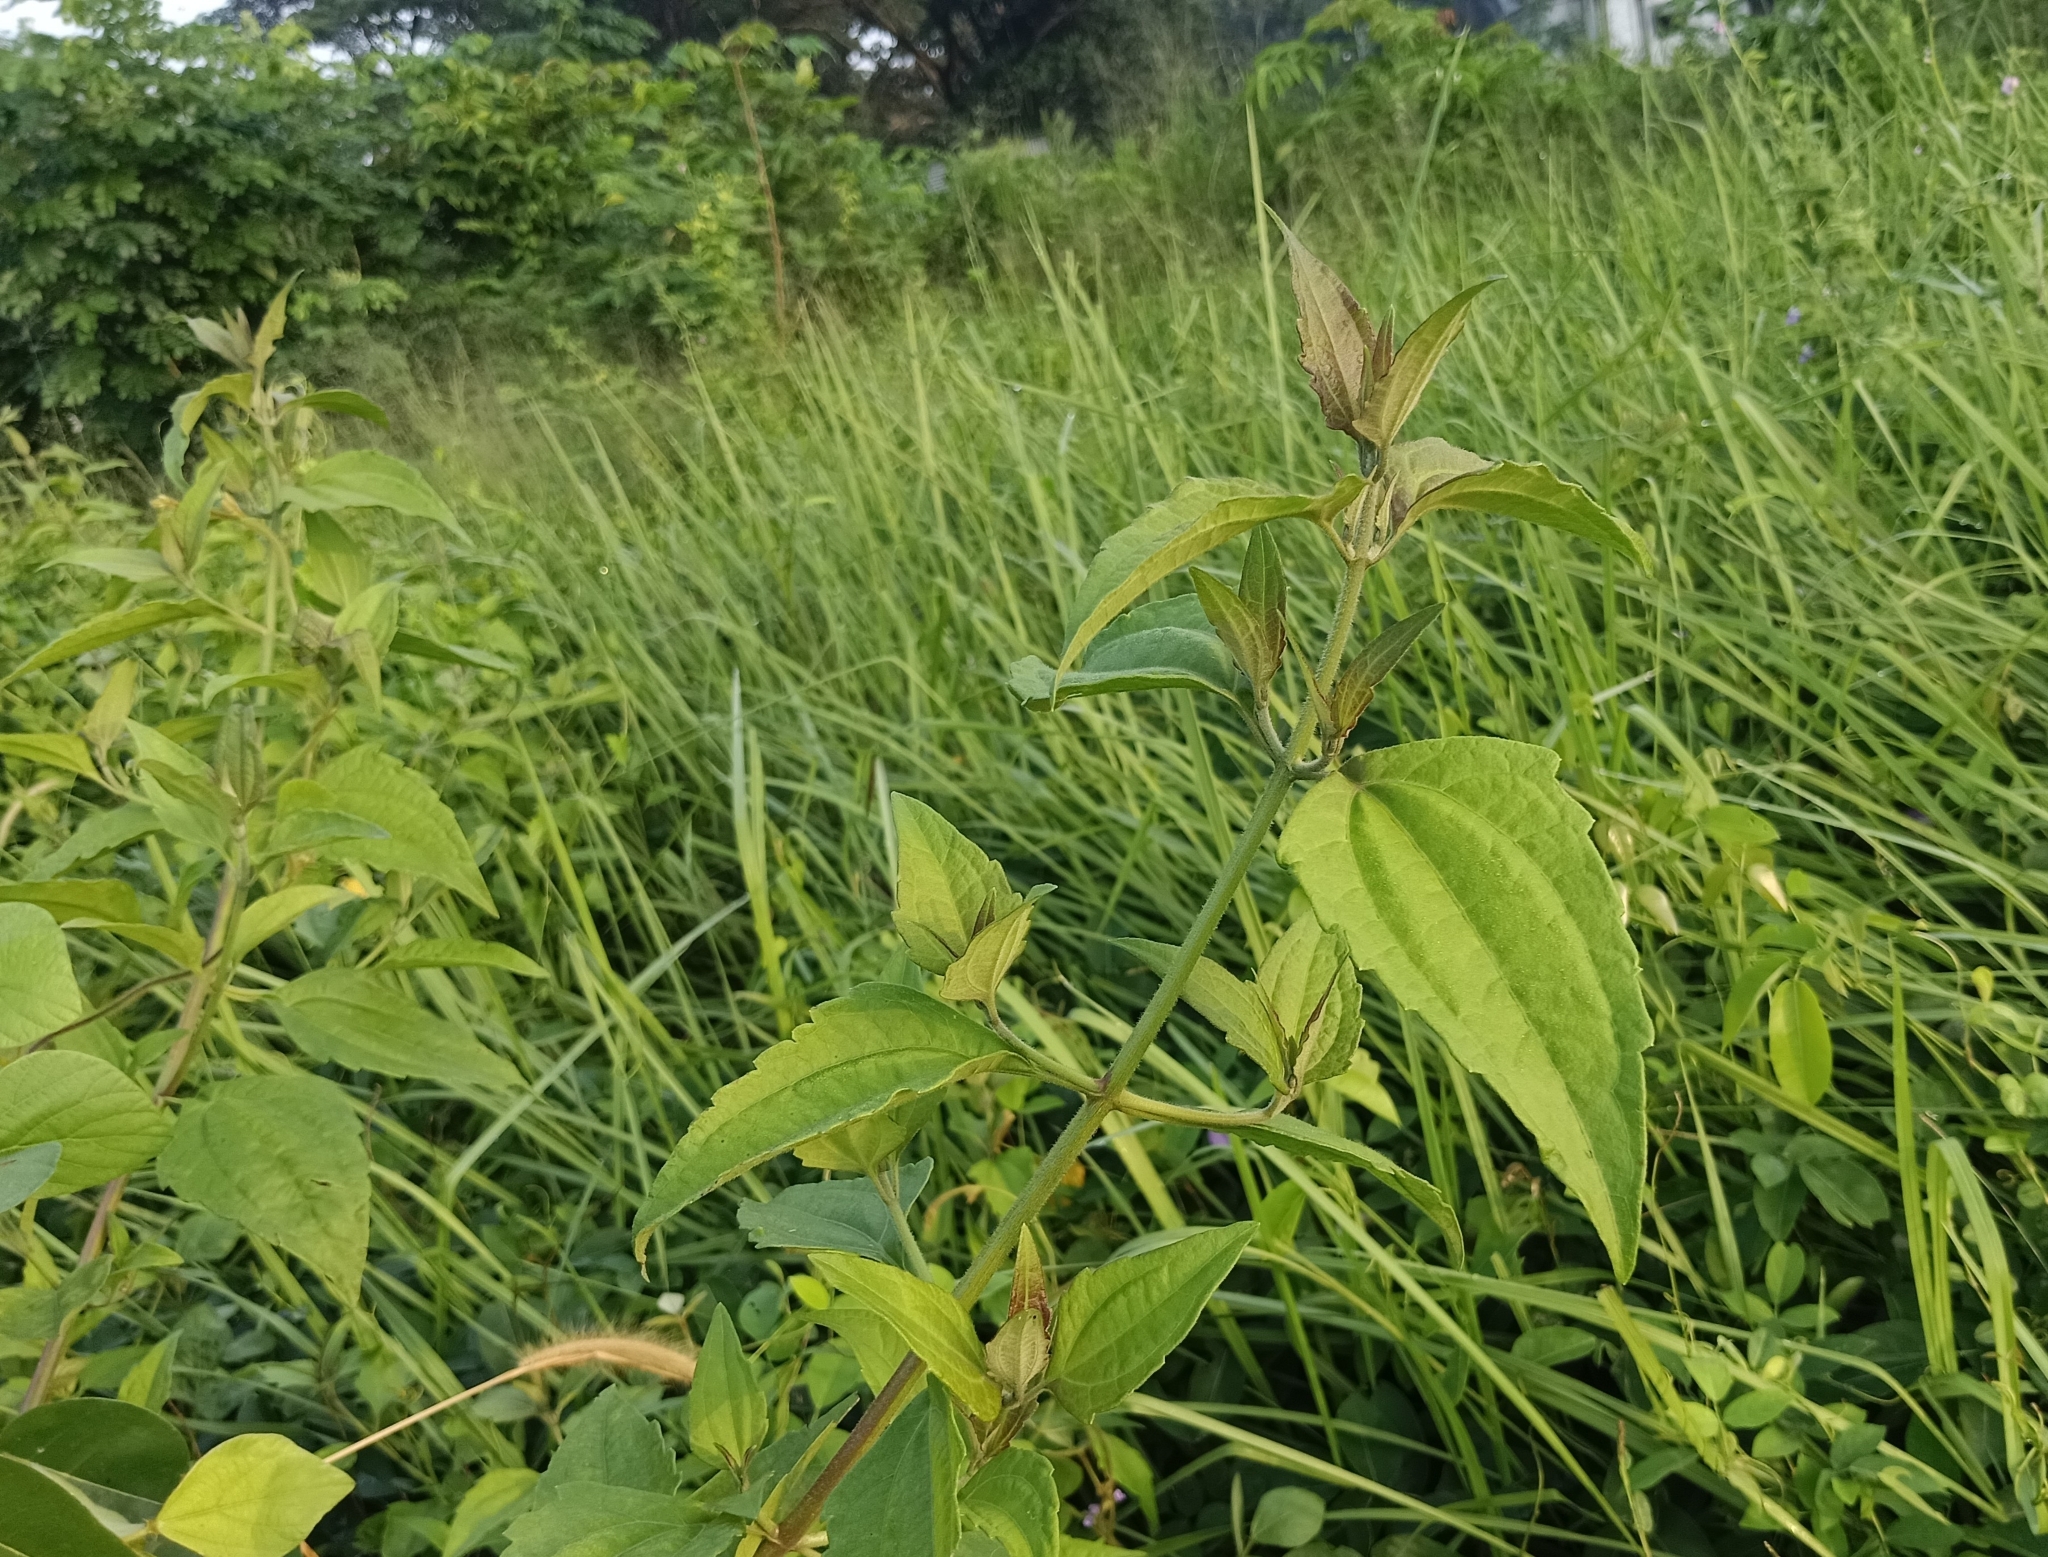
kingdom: Plantae
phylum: Tracheophyta
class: Magnoliopsida
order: Asterales
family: Asteraceae
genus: Chromolaena
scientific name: Chromolaena odorata
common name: Siamweed
